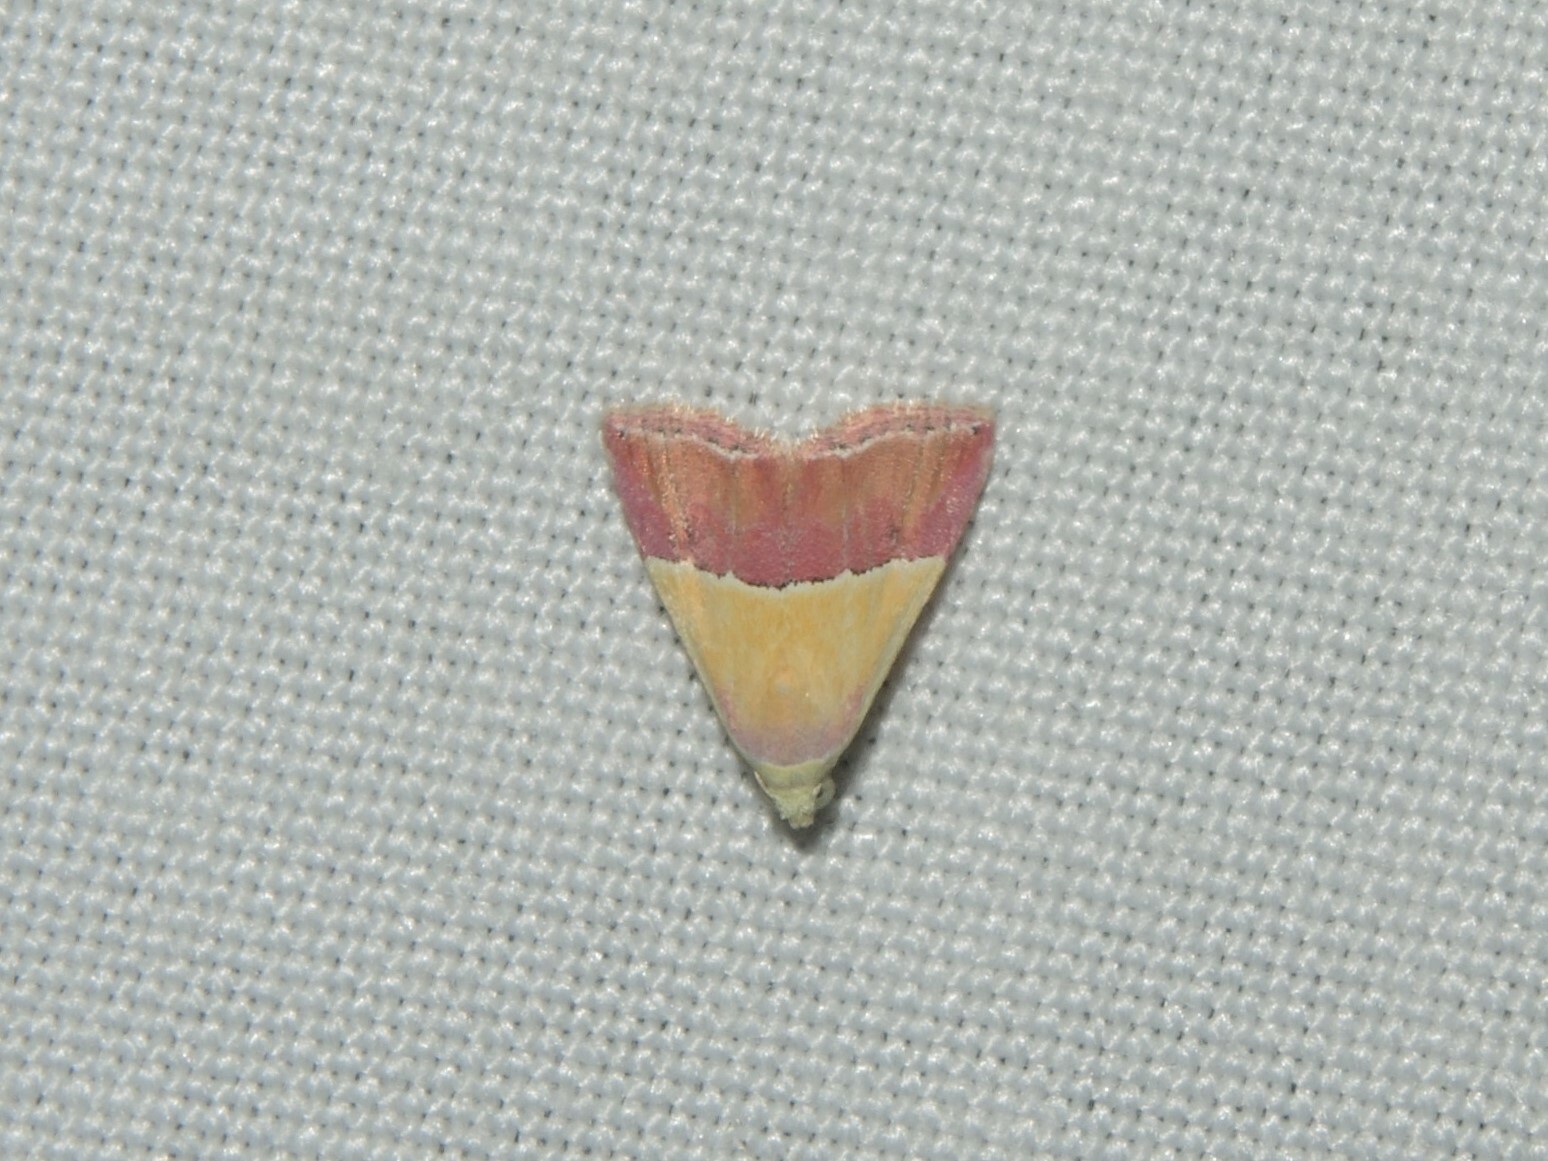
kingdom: Animalia
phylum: Arthropoda
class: Insecta
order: Lepidoptera
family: Noctuidae
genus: Eublemma
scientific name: Eublemma accedens
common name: Moth
